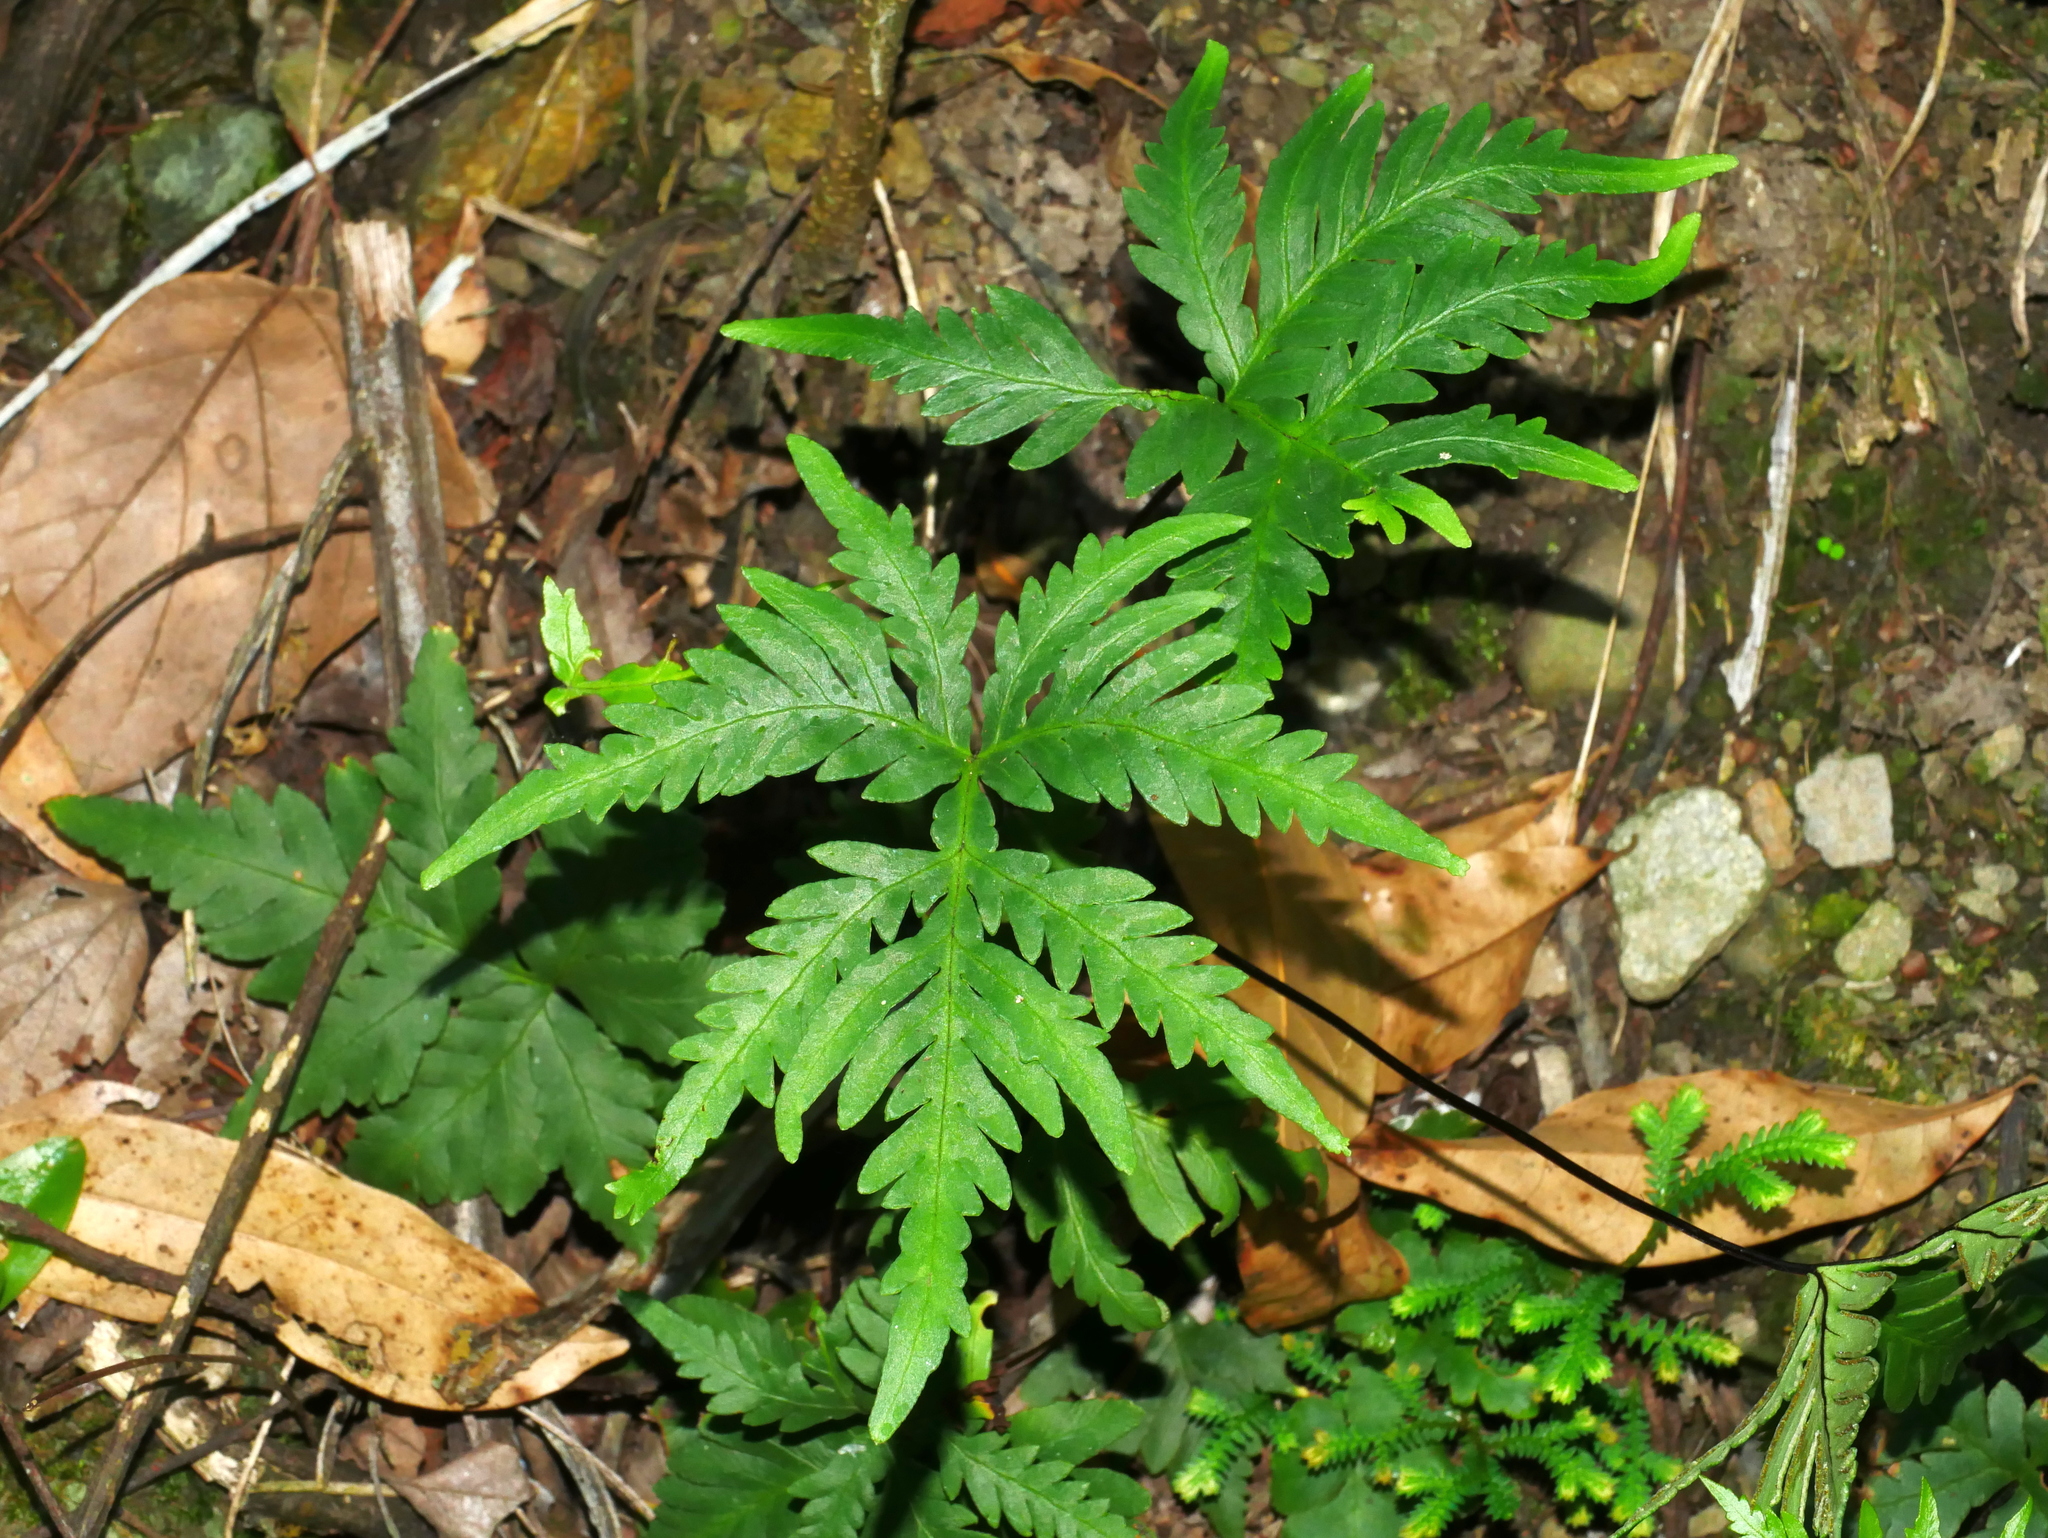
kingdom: Plantae
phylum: Tracheophyta
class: Polypodiopsida
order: Polypodiales
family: Pteridaceae
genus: Doryopteris
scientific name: Doryopteris concolor
